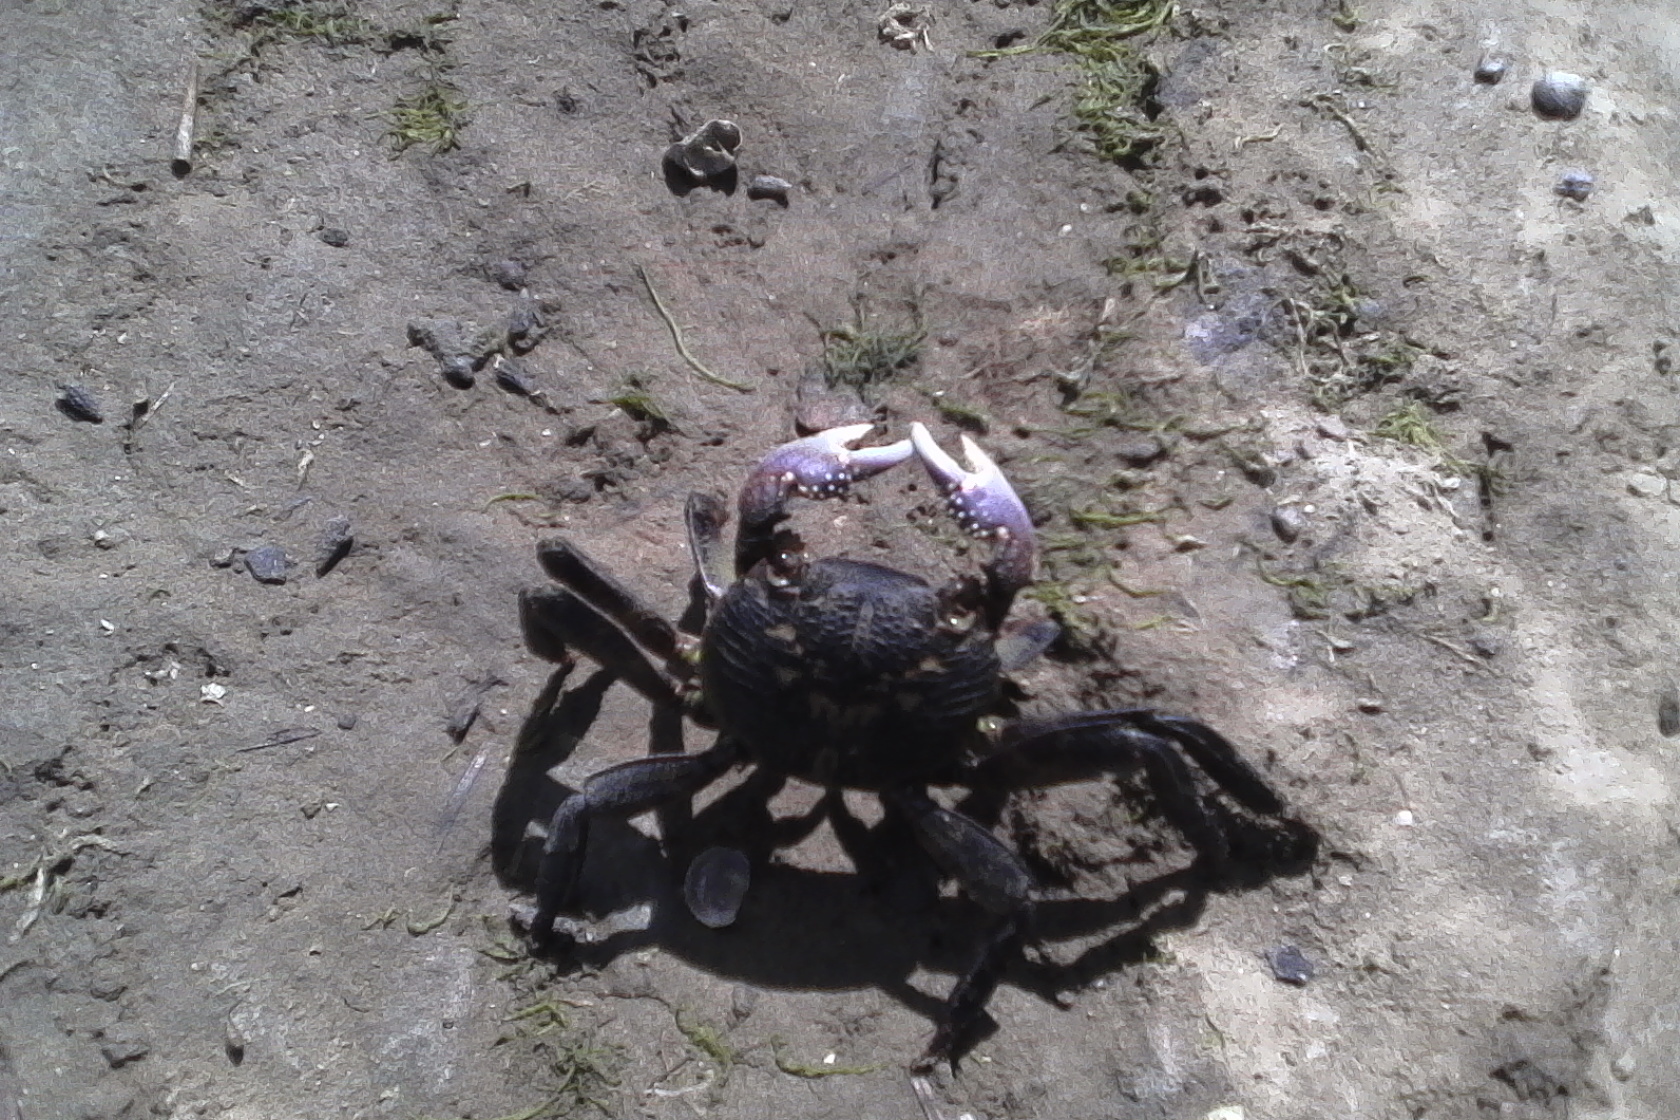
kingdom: Animalia
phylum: Arthropoda
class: Malacostraca
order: Decapoda
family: Grapsidae
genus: Leptograpsus
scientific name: Leptograpsus variegatus
